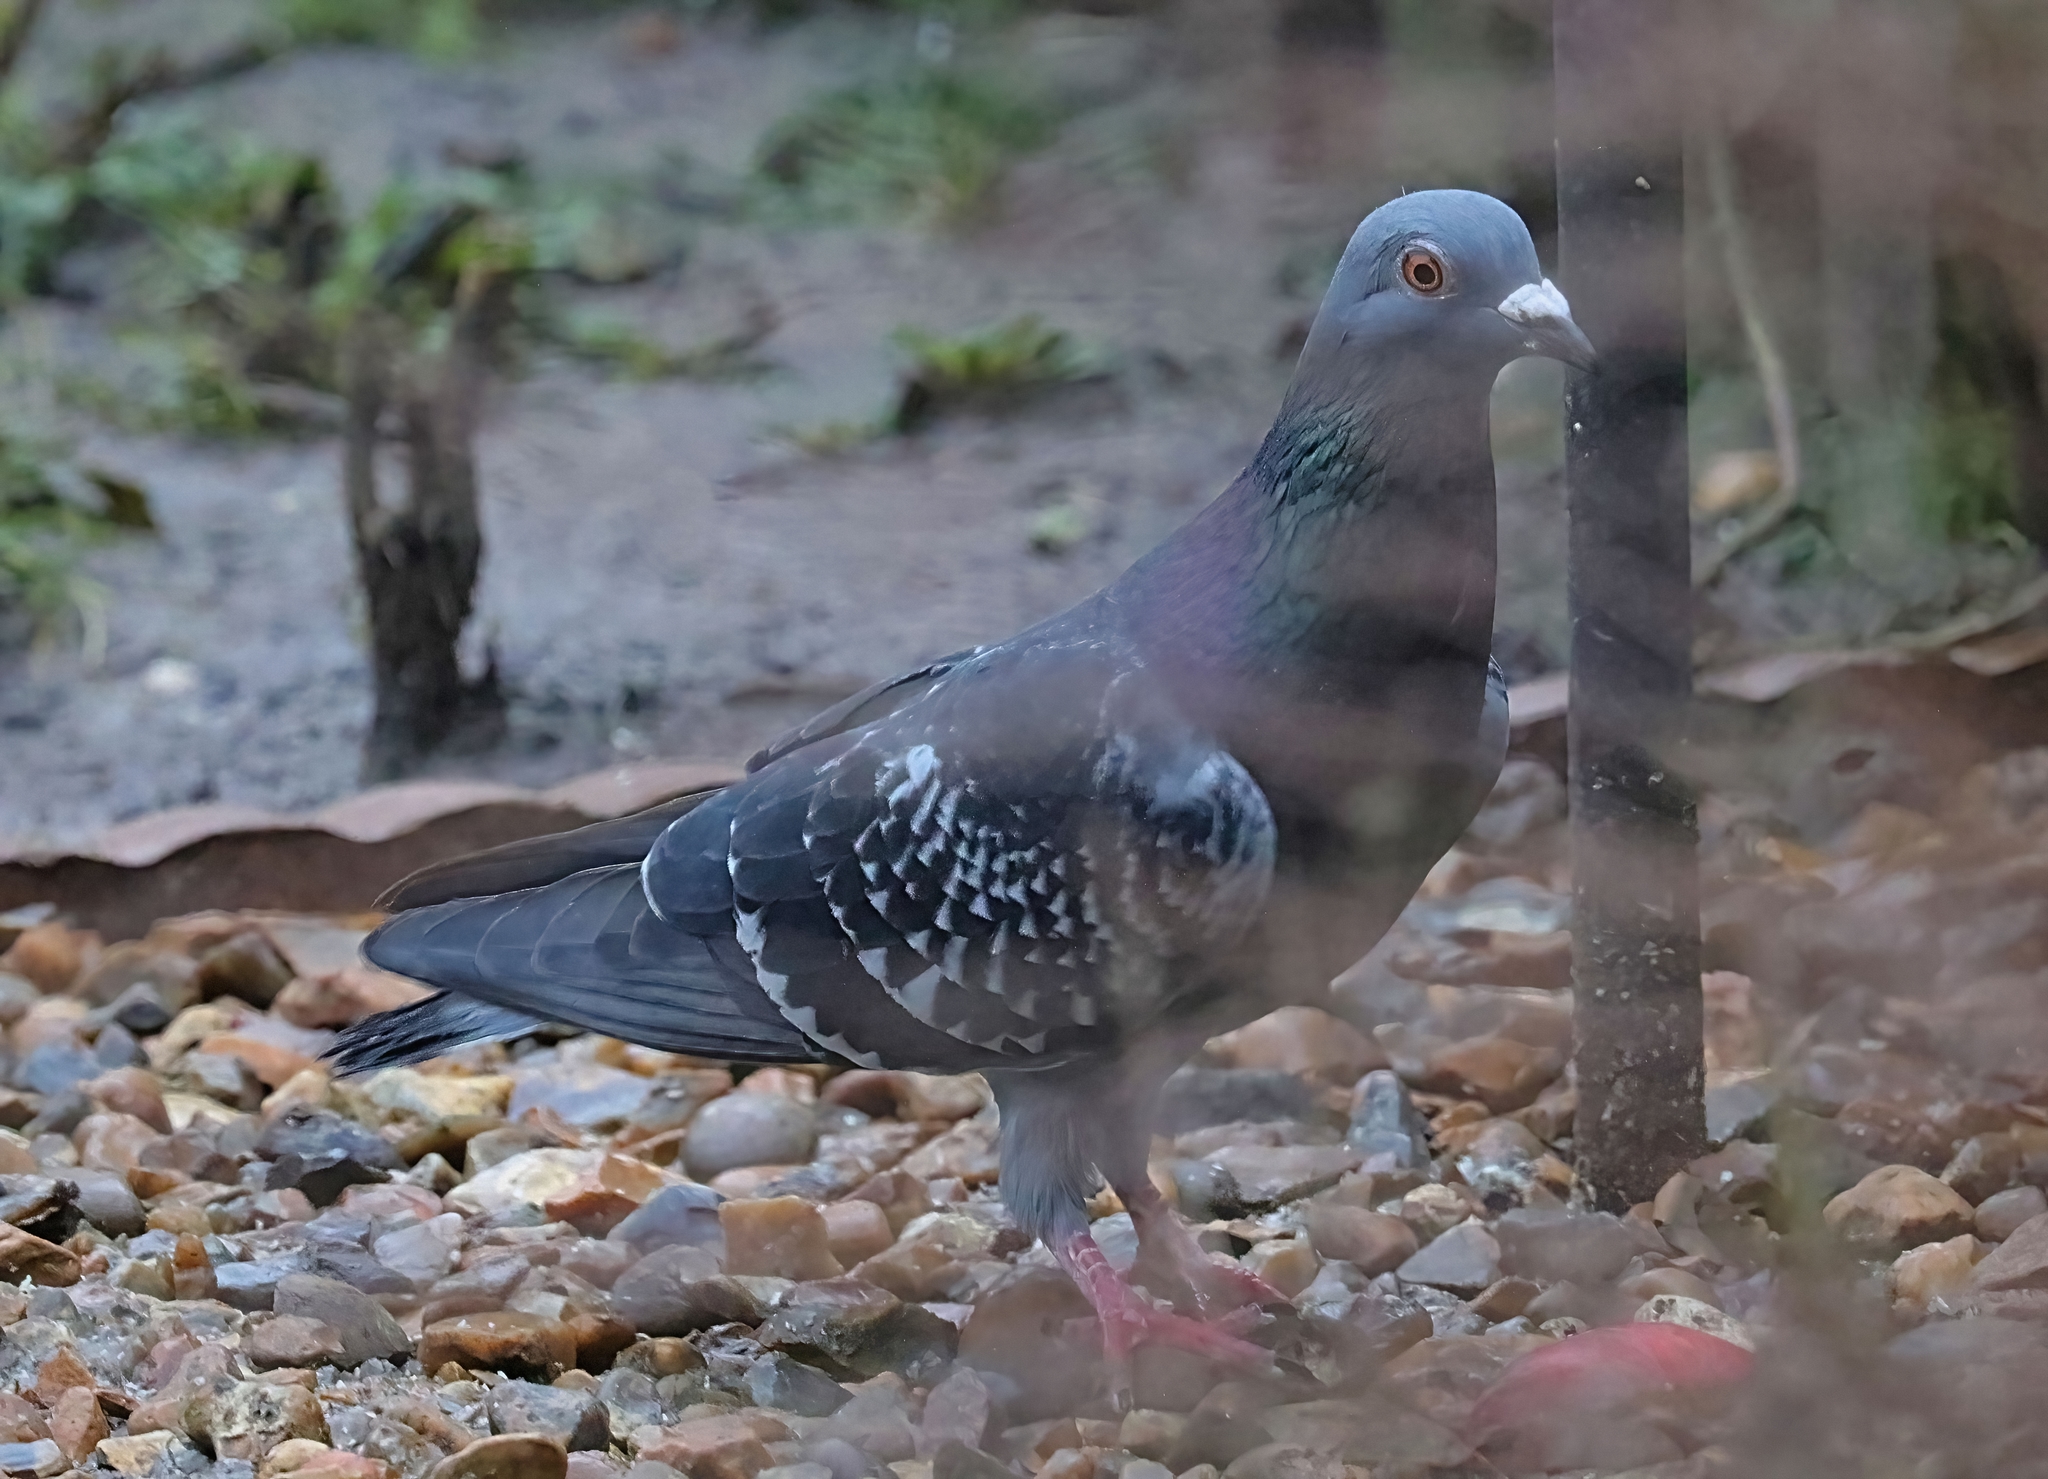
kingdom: Animalia
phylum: Chordata
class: Aves
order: Columbiformes
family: Columbidae
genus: Columba
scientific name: Columba livia
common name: Rock pigeon
